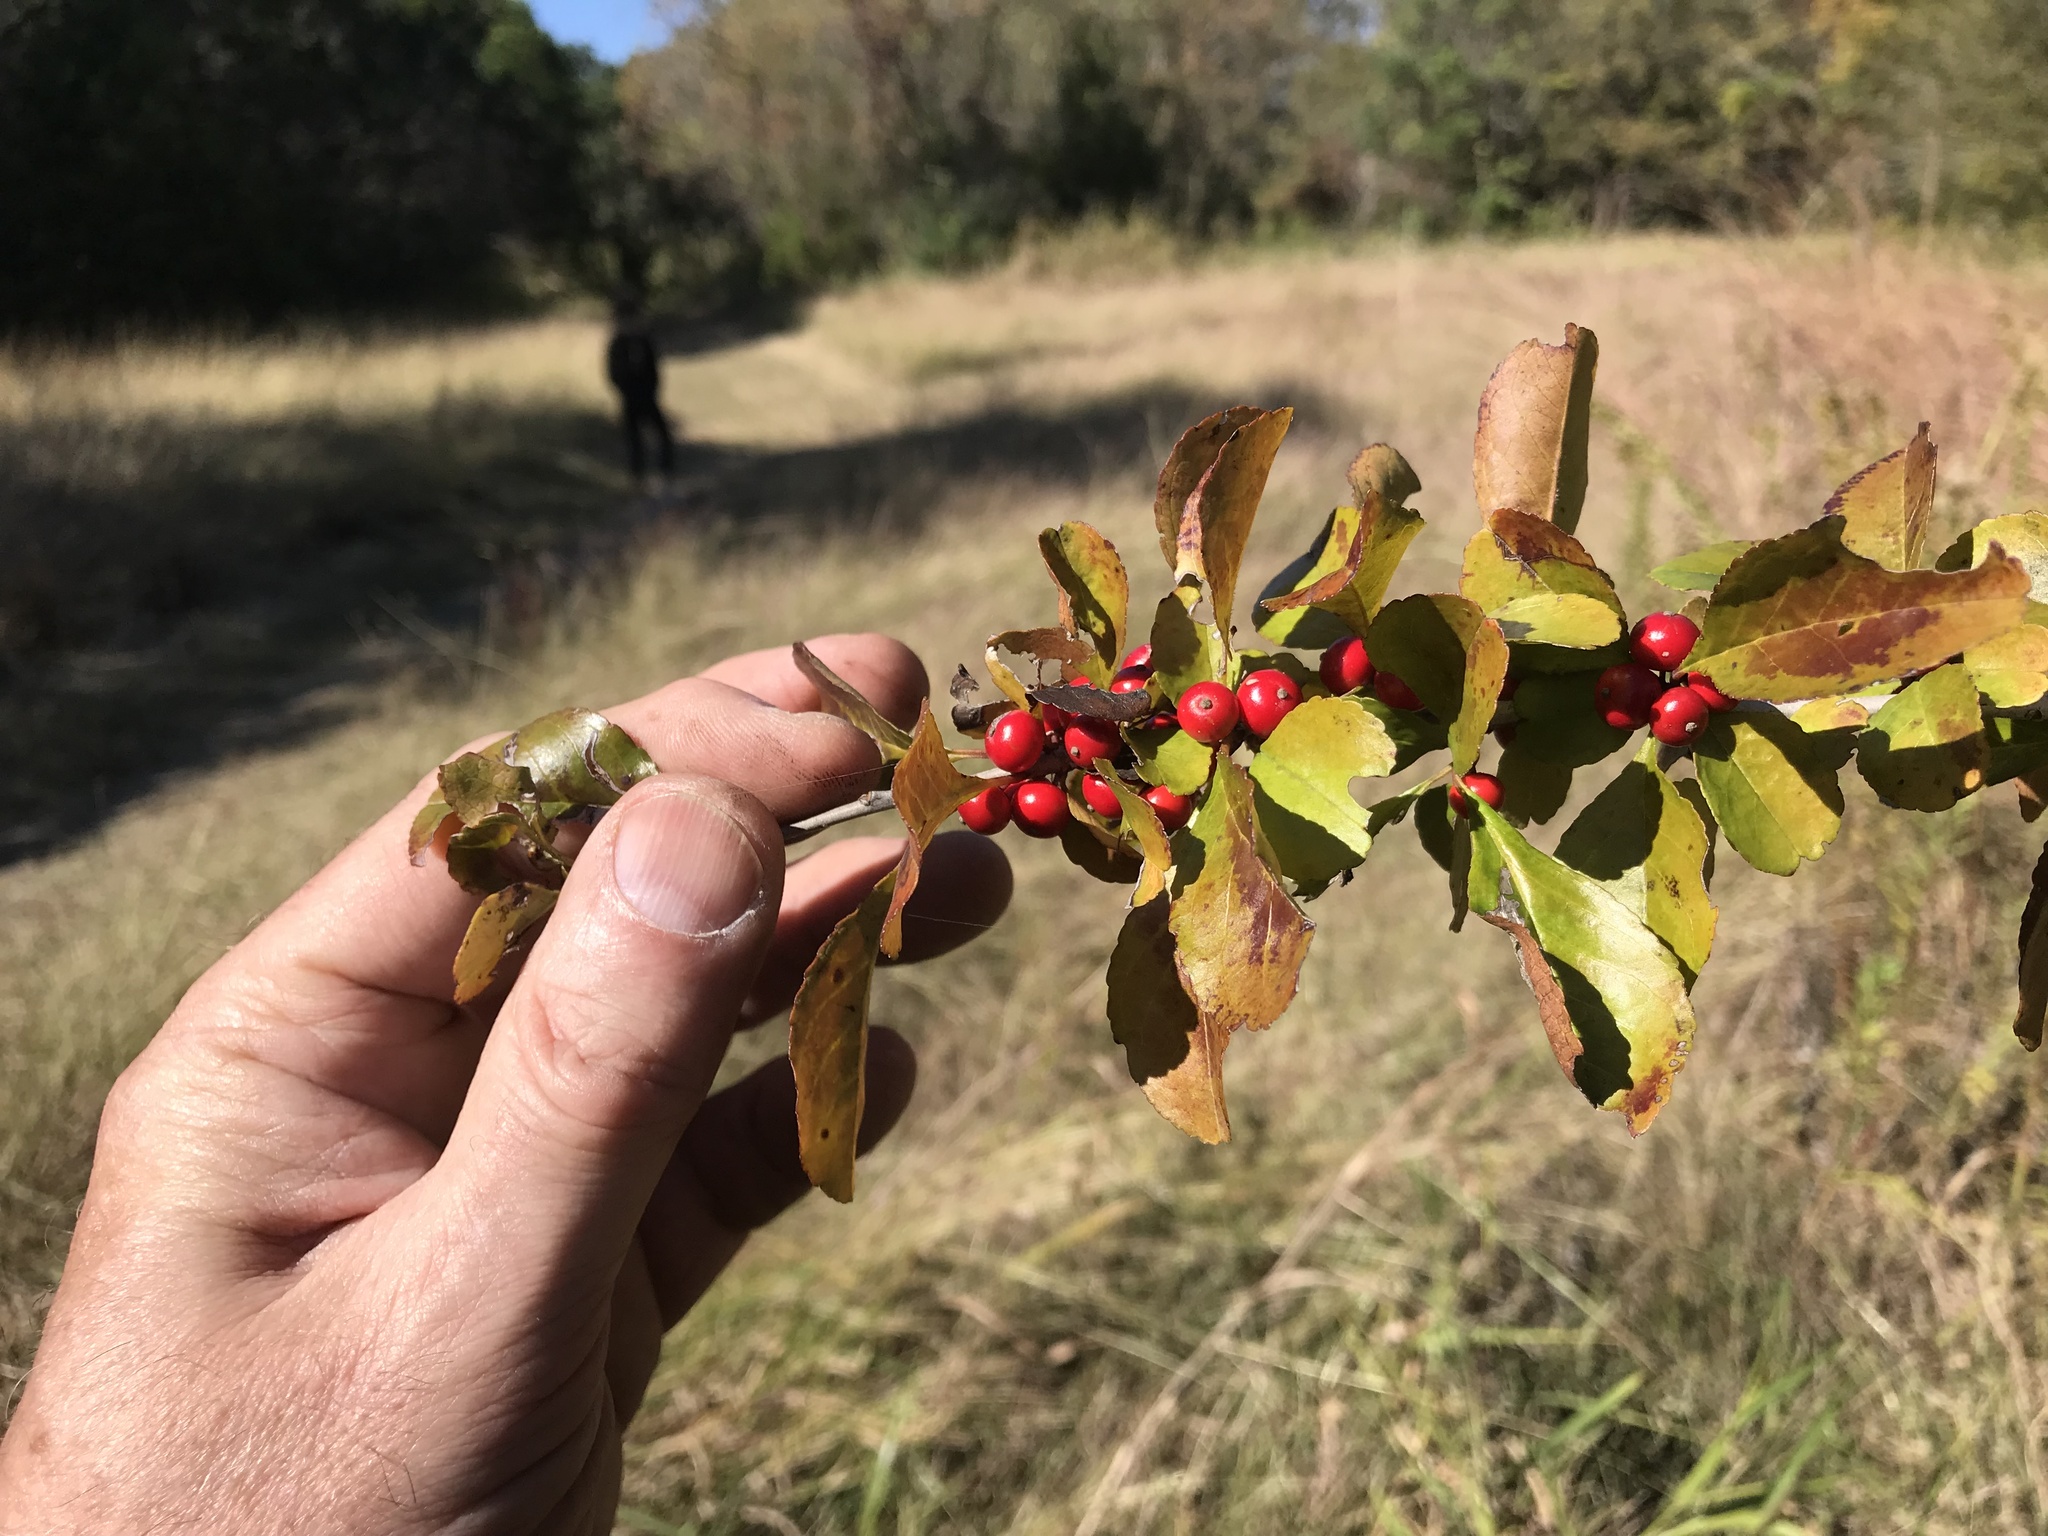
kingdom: Plantae
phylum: Tracheophyta
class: Magnoliopsida
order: Aquifoliales
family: Aquifoliaceae
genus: Ilex
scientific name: Ilex decidua
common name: Possum-haw
